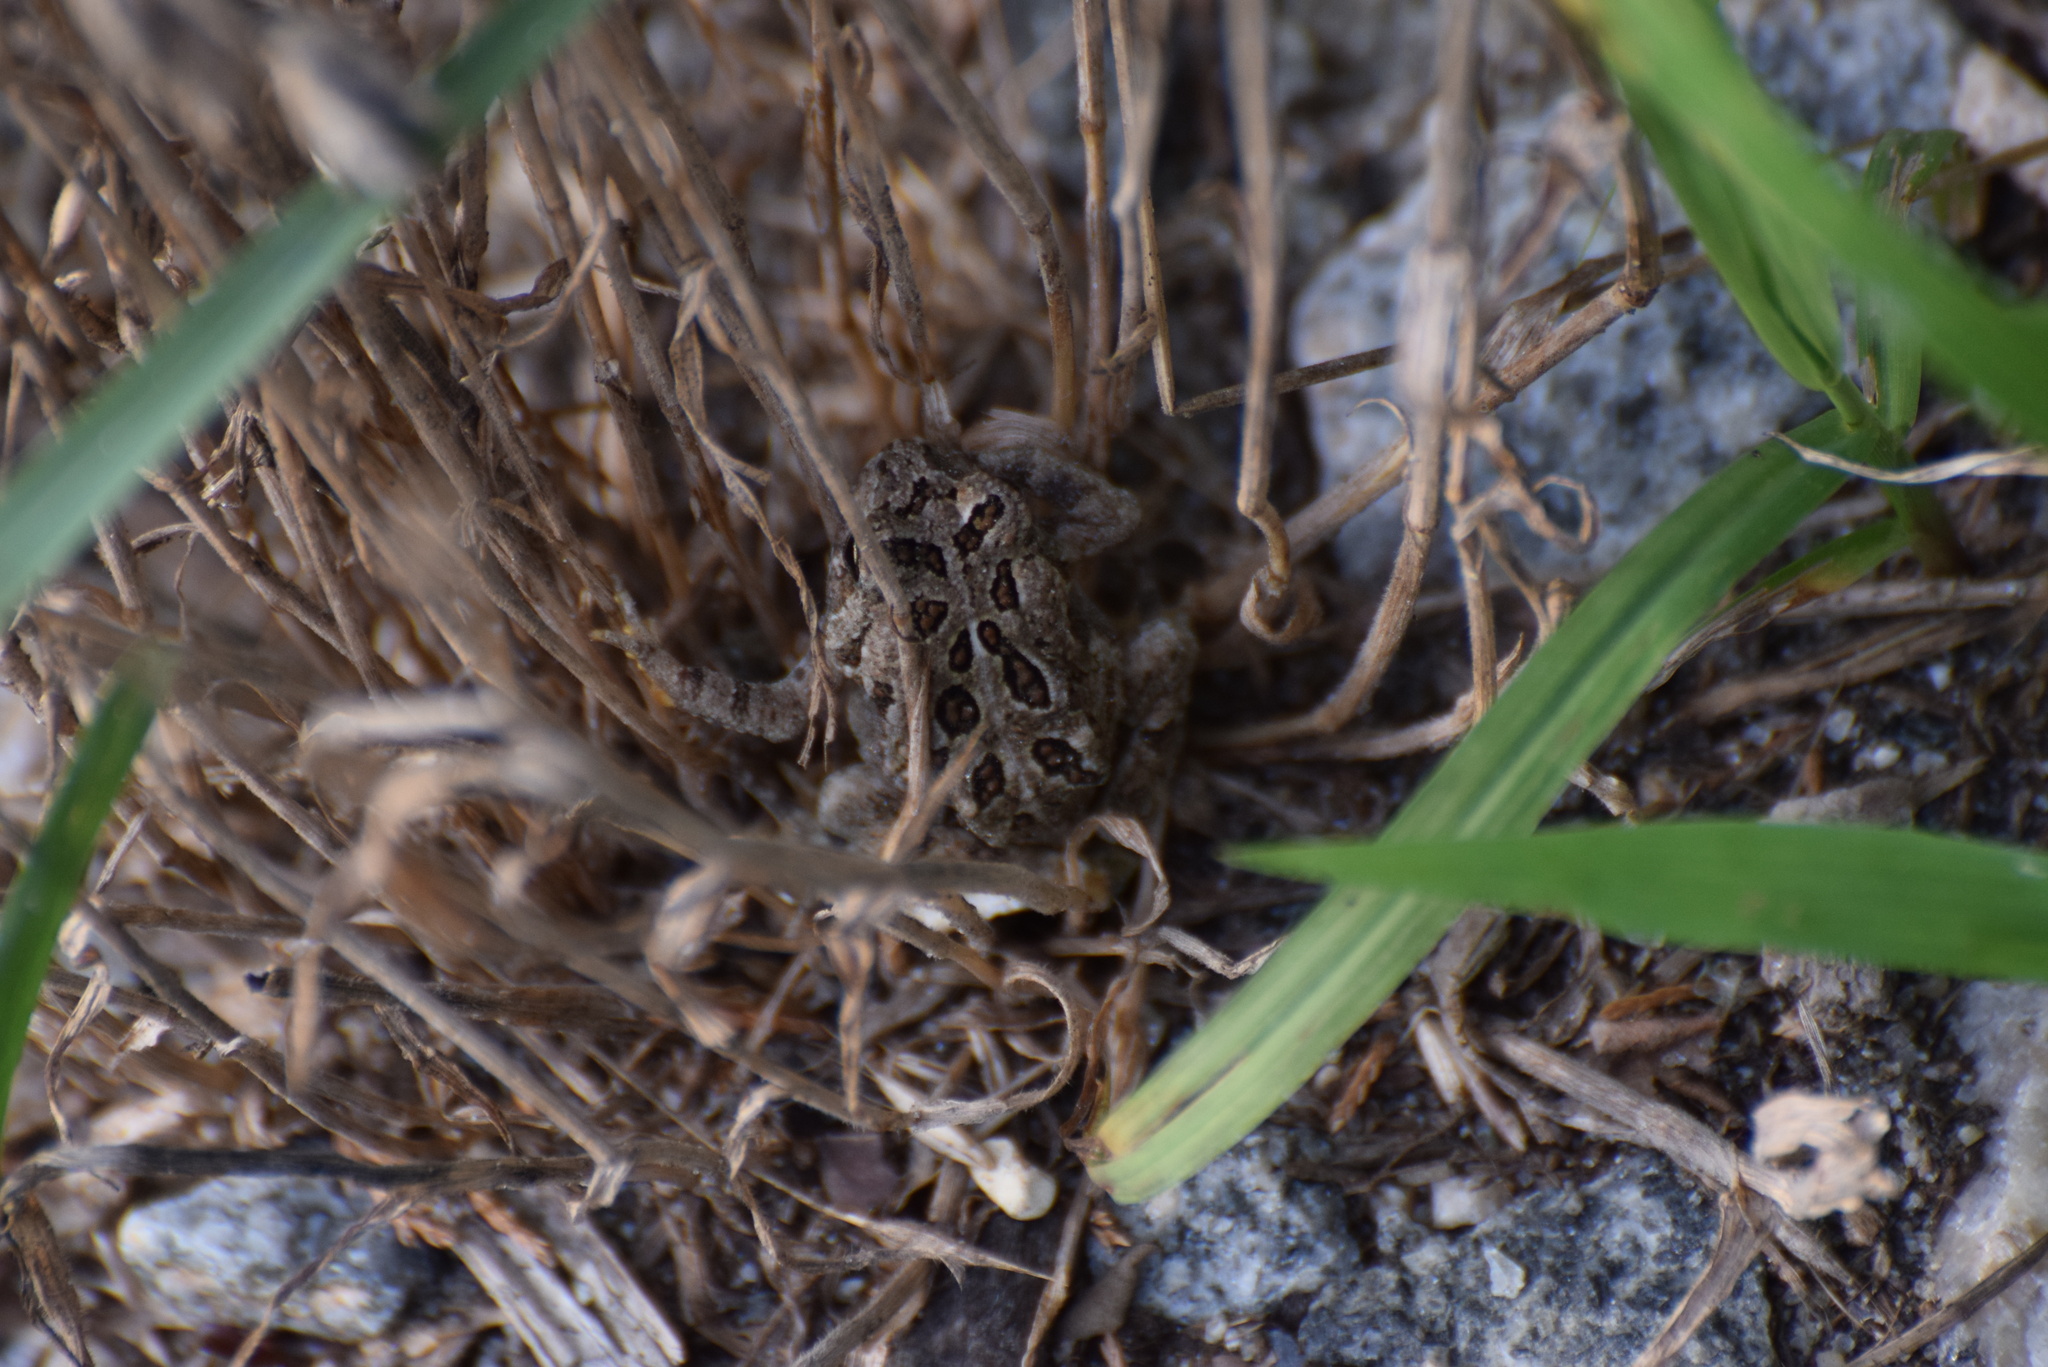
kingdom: Animalia
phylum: Chordata
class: Amphibia
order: Anura
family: Bufonidae
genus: Anaxyrus
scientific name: Anaxyrus fowleri
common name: Fowler's toad
